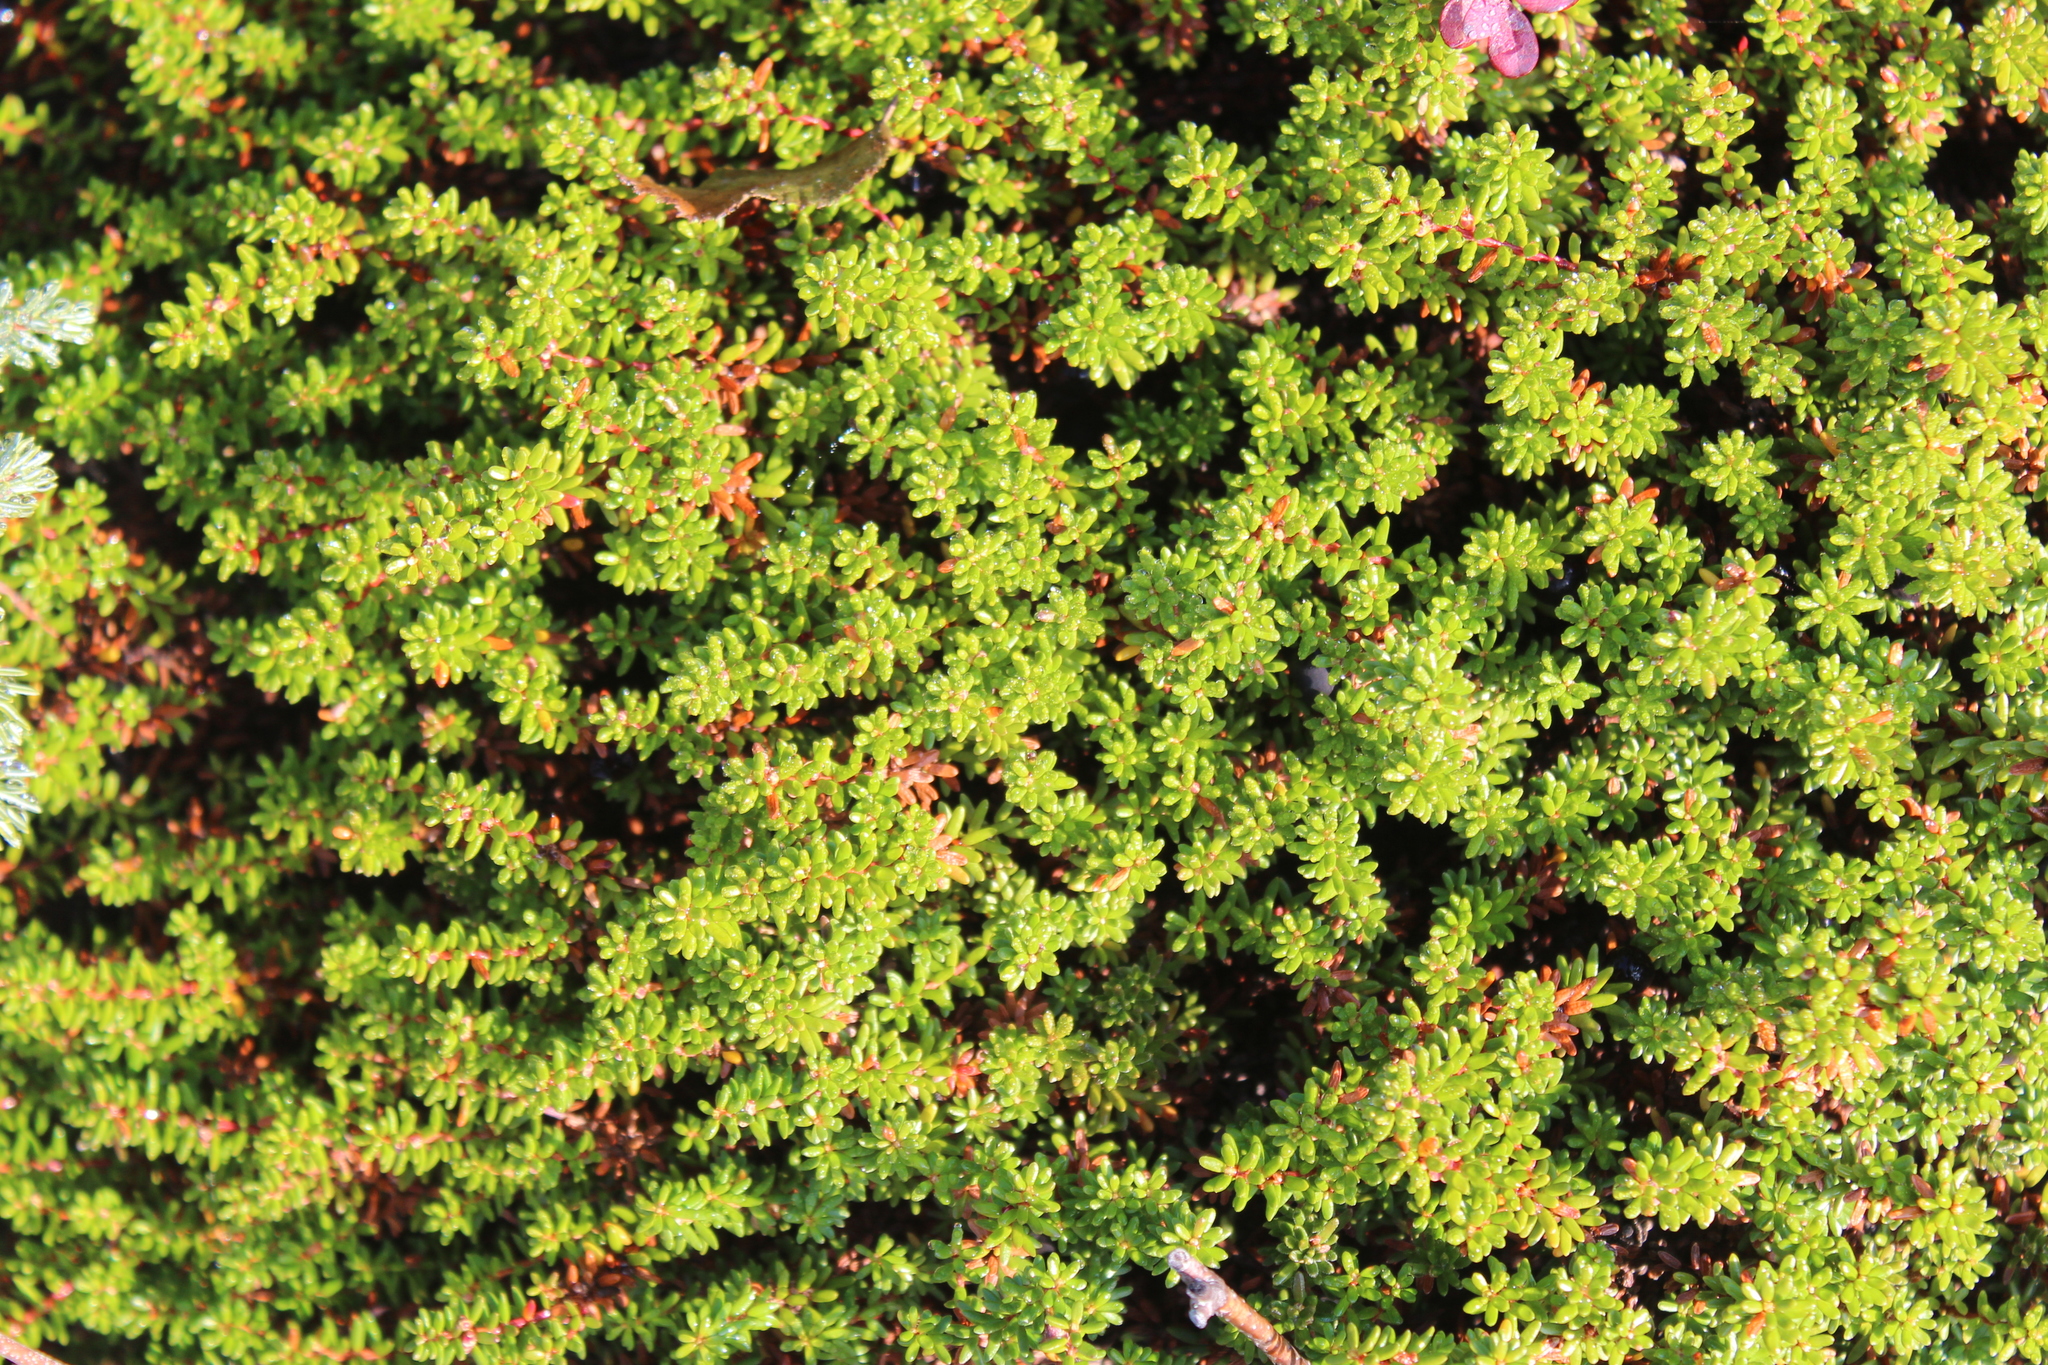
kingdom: Plantae
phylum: Tracheophyta
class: Magnoliopsida
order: Ericales
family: Ericaceae
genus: Empetrum
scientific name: Empetrum nigrum
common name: Black crowberry
